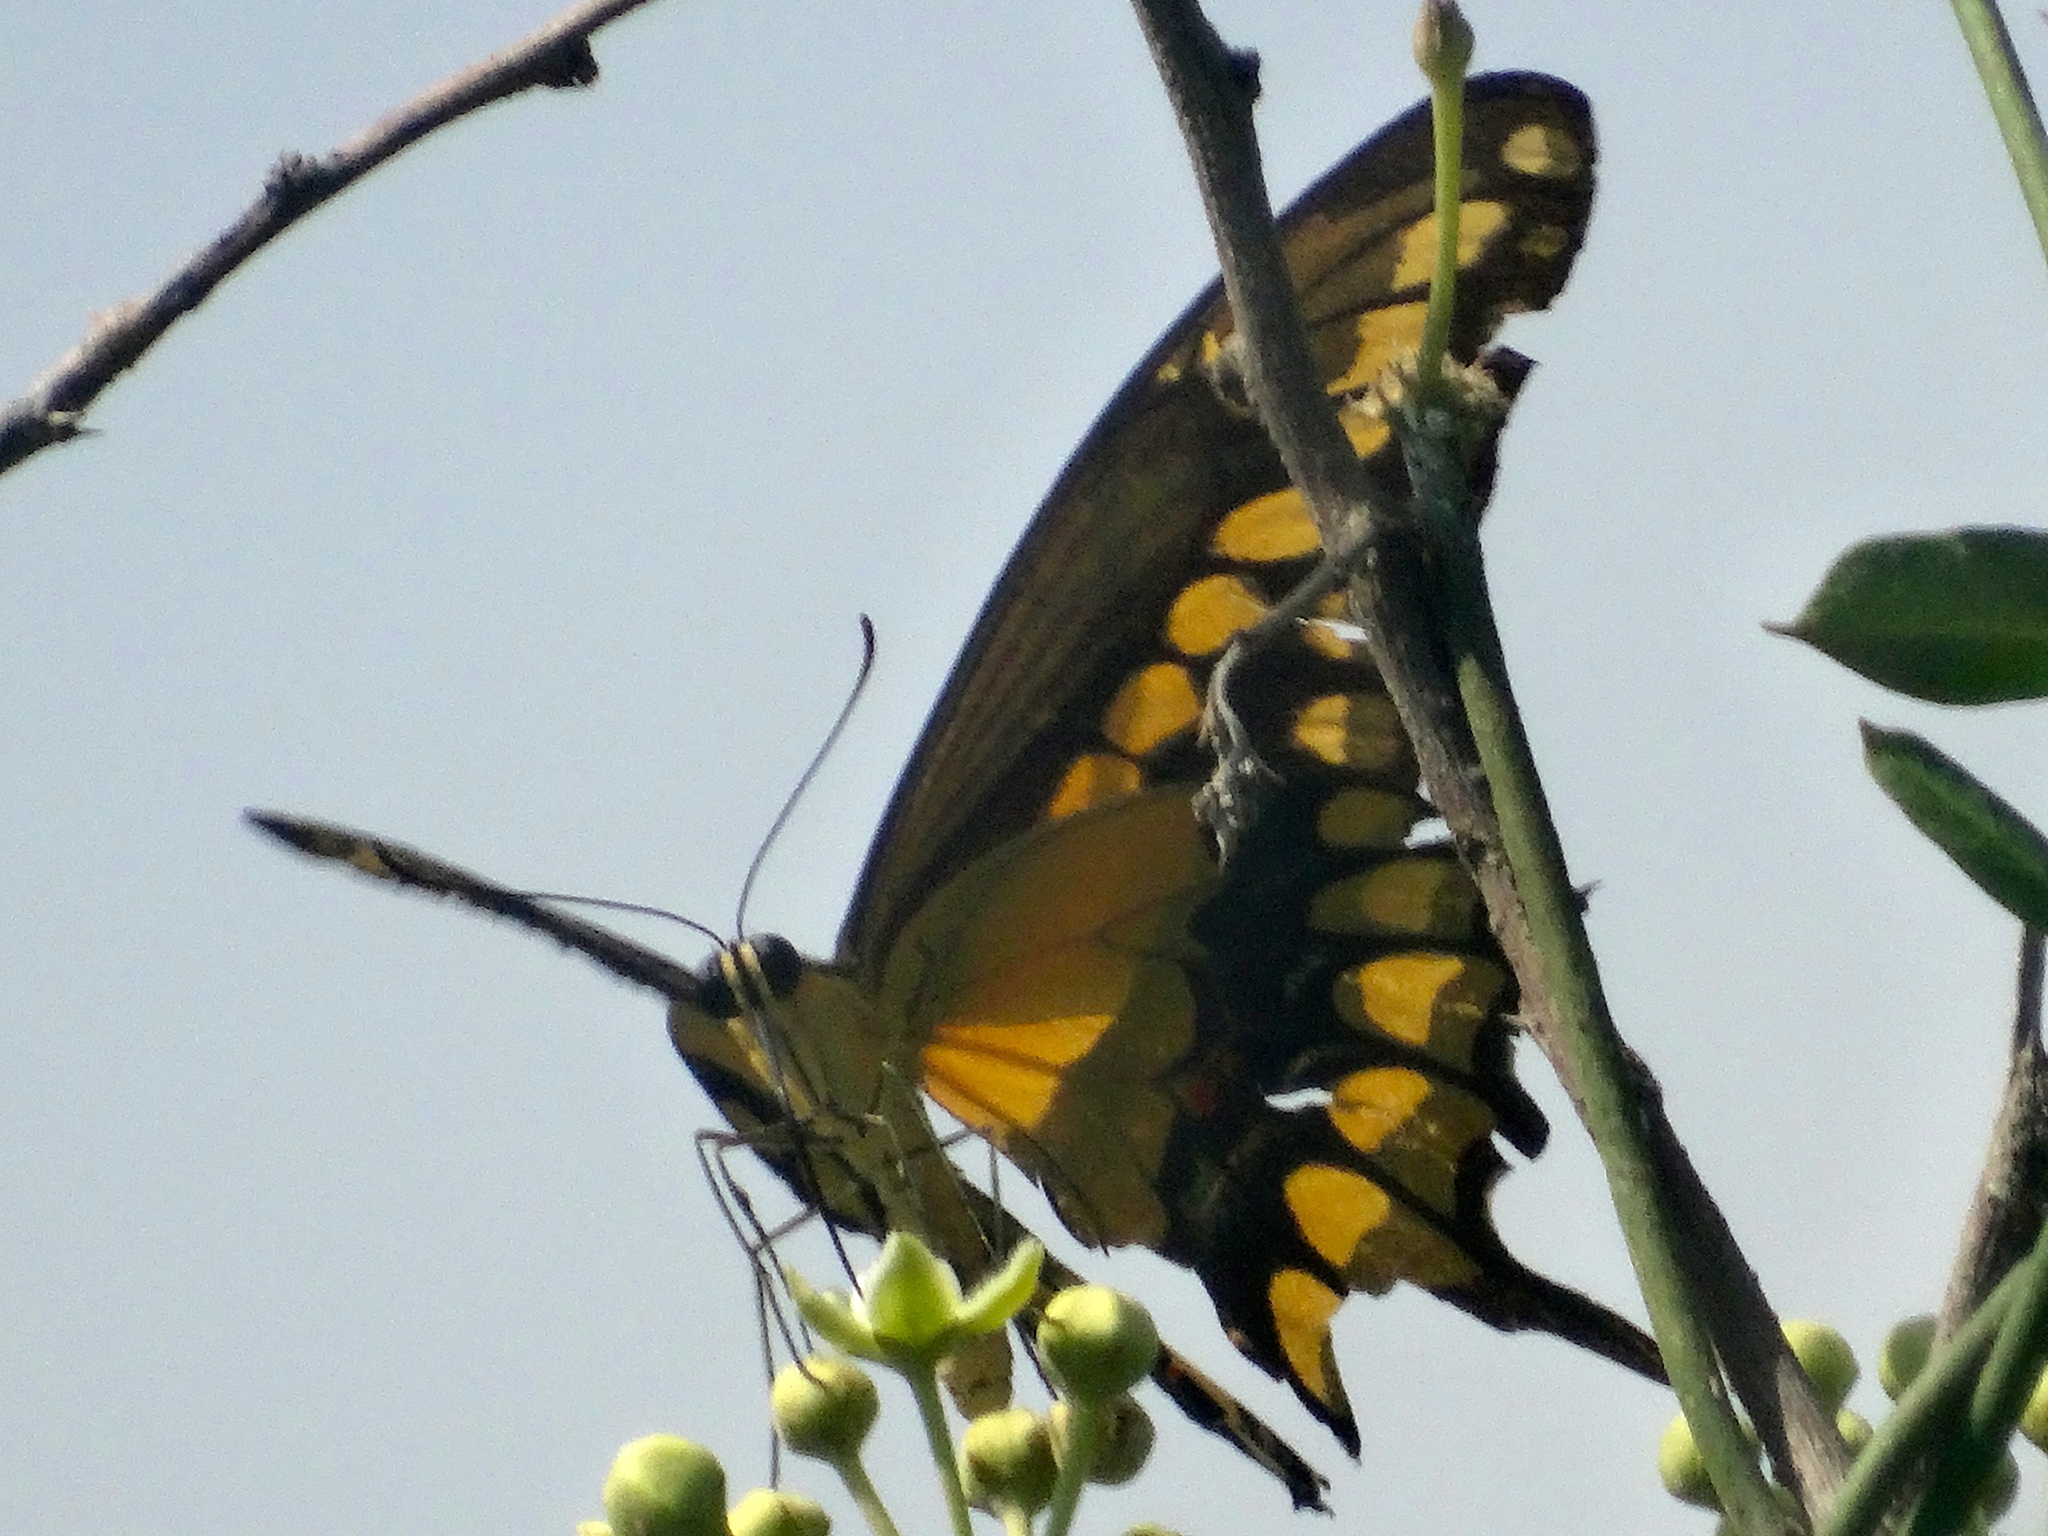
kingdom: Animalia
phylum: Arthropoda
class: Insecta
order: Lepidoptera
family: Papilionidae
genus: Papilio
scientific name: Papilio rumiko
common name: Western giant swallowtail
